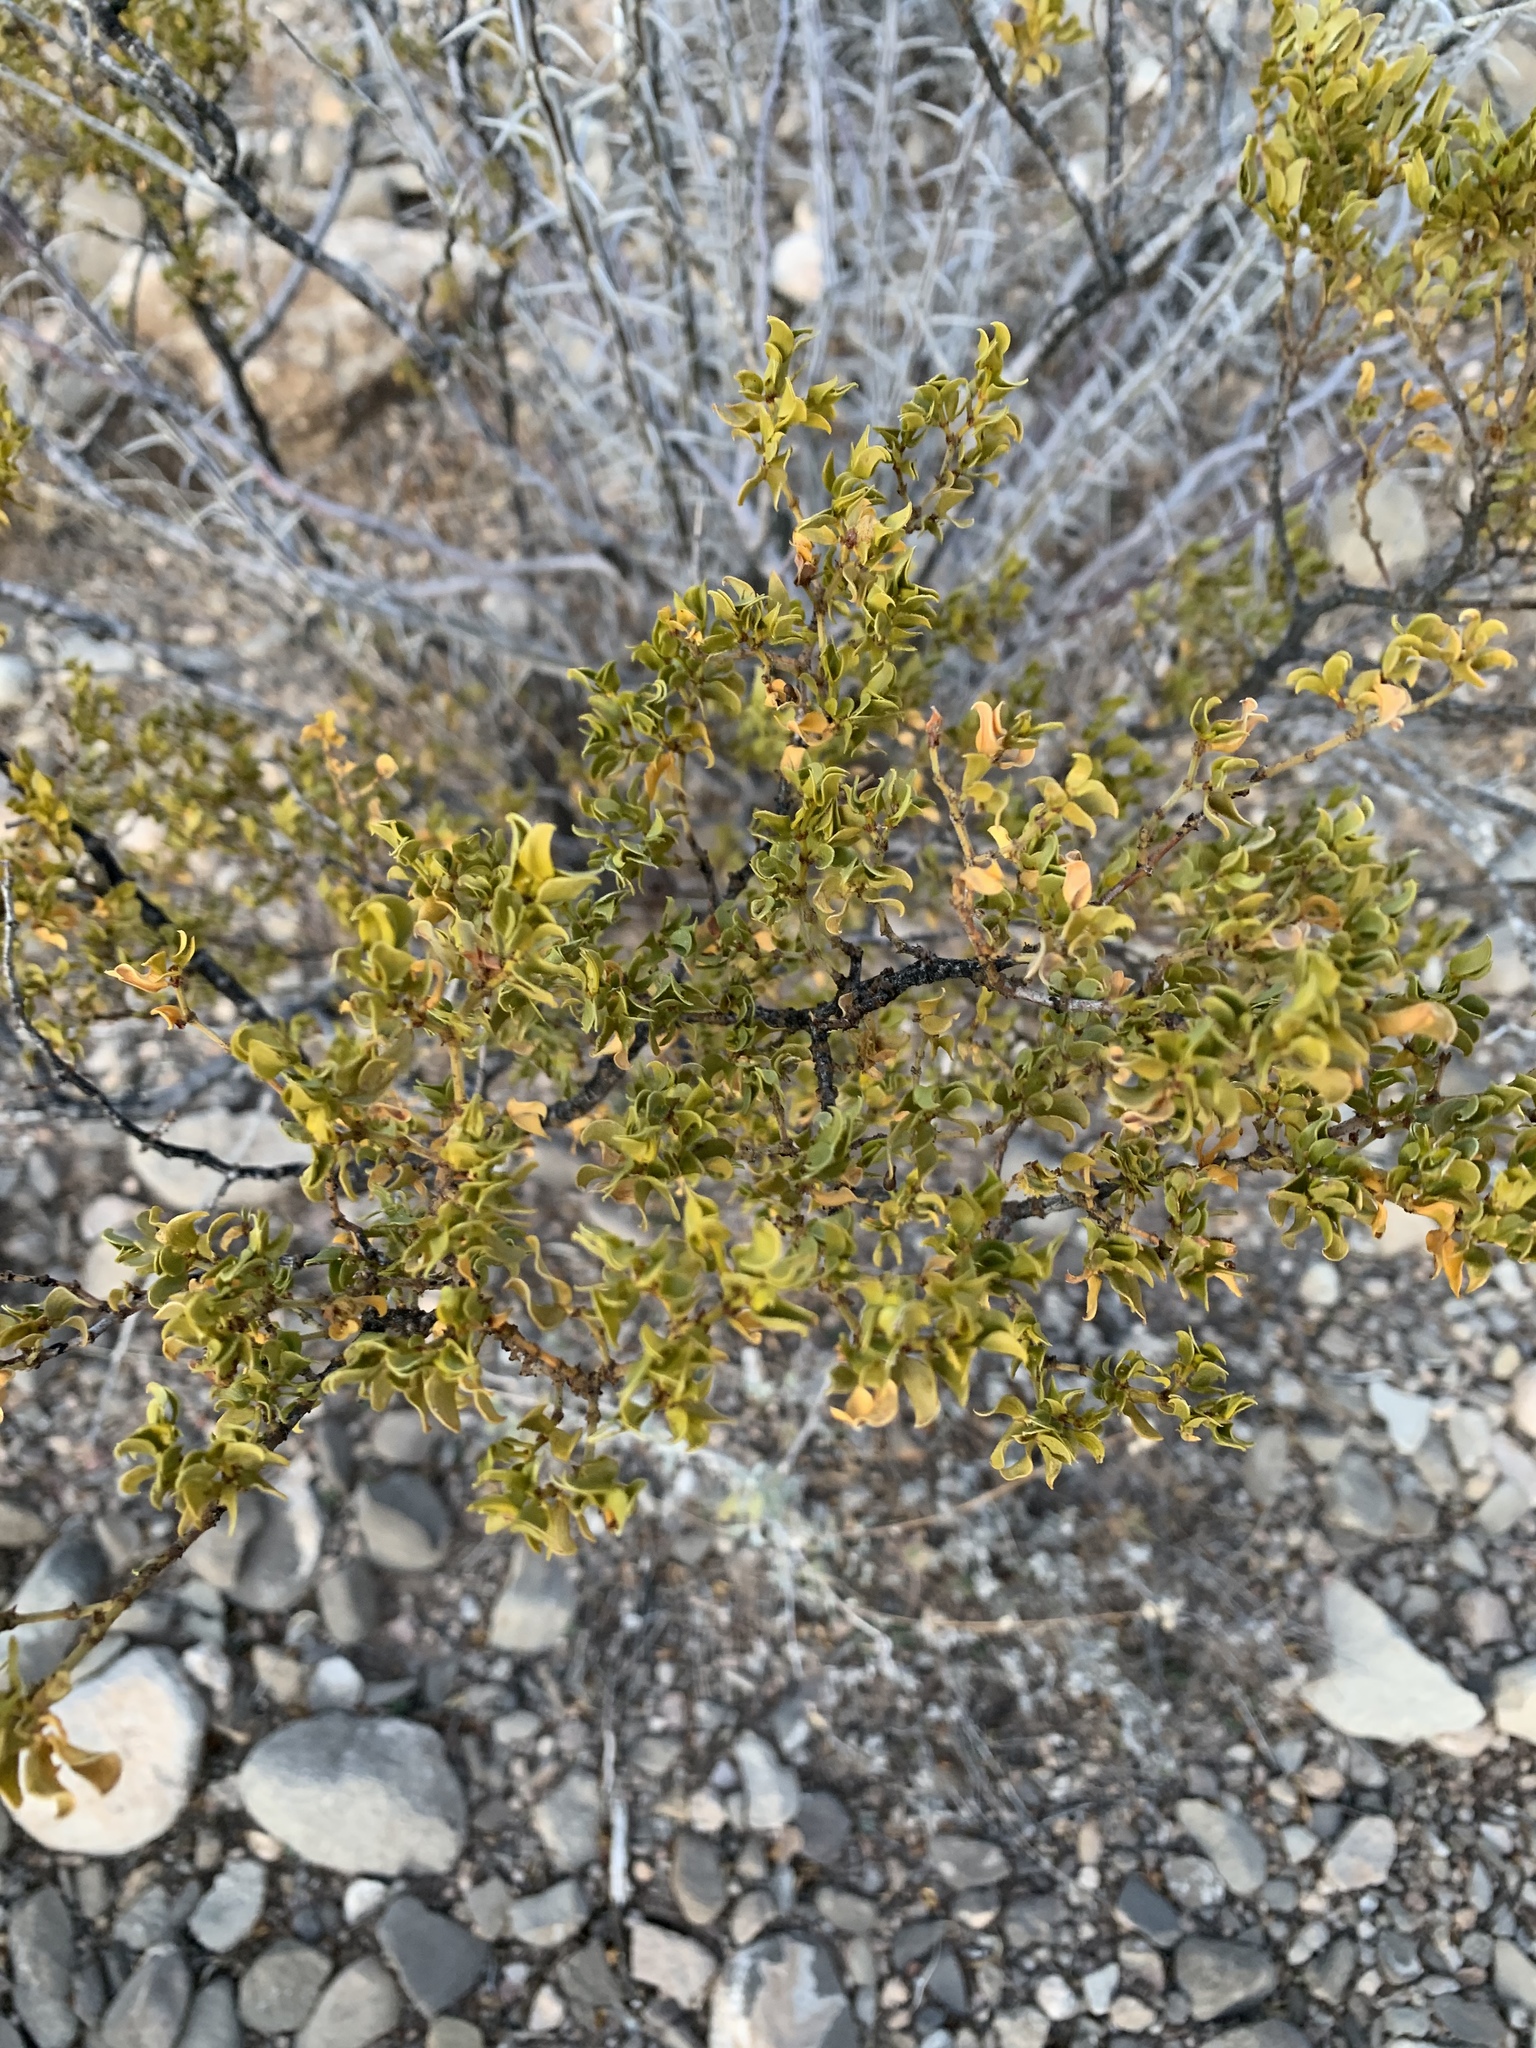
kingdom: Plantae
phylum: Tracheophyta
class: Magnoliopsida
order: Zygophyllales
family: Zygophyllaceae
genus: Larrea
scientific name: Larrea tridentata
